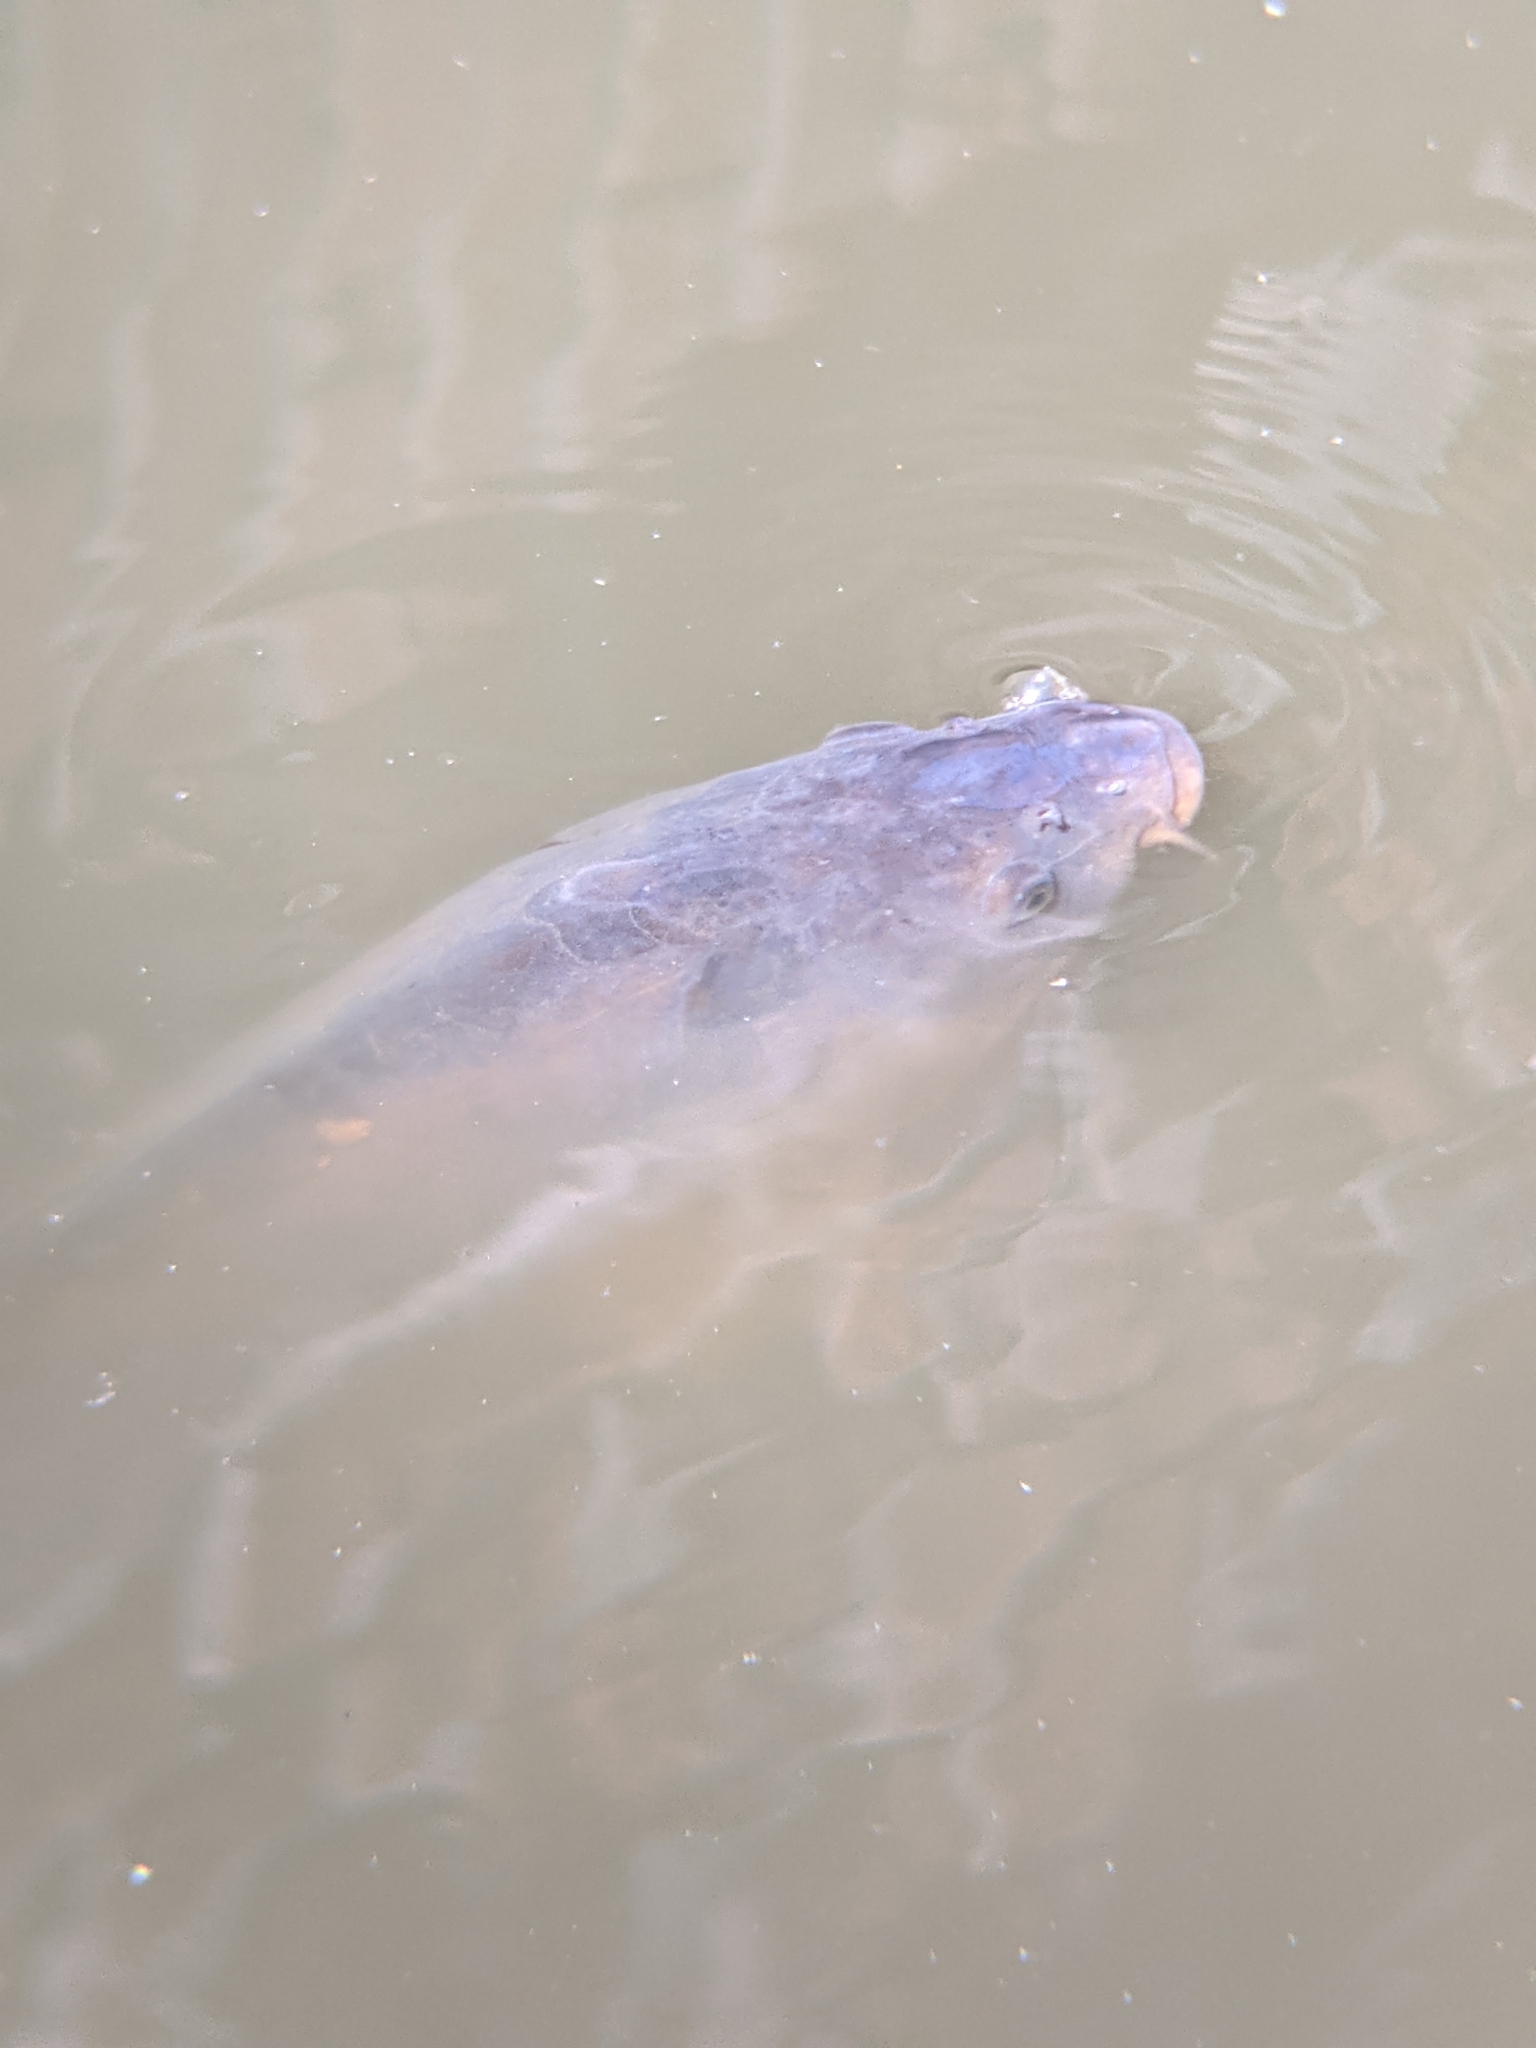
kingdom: Animalia
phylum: Chordata
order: Cypriniformes
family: Cyprinidae
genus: Cyprinus
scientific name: Cyprinus carpio
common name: Common carp
